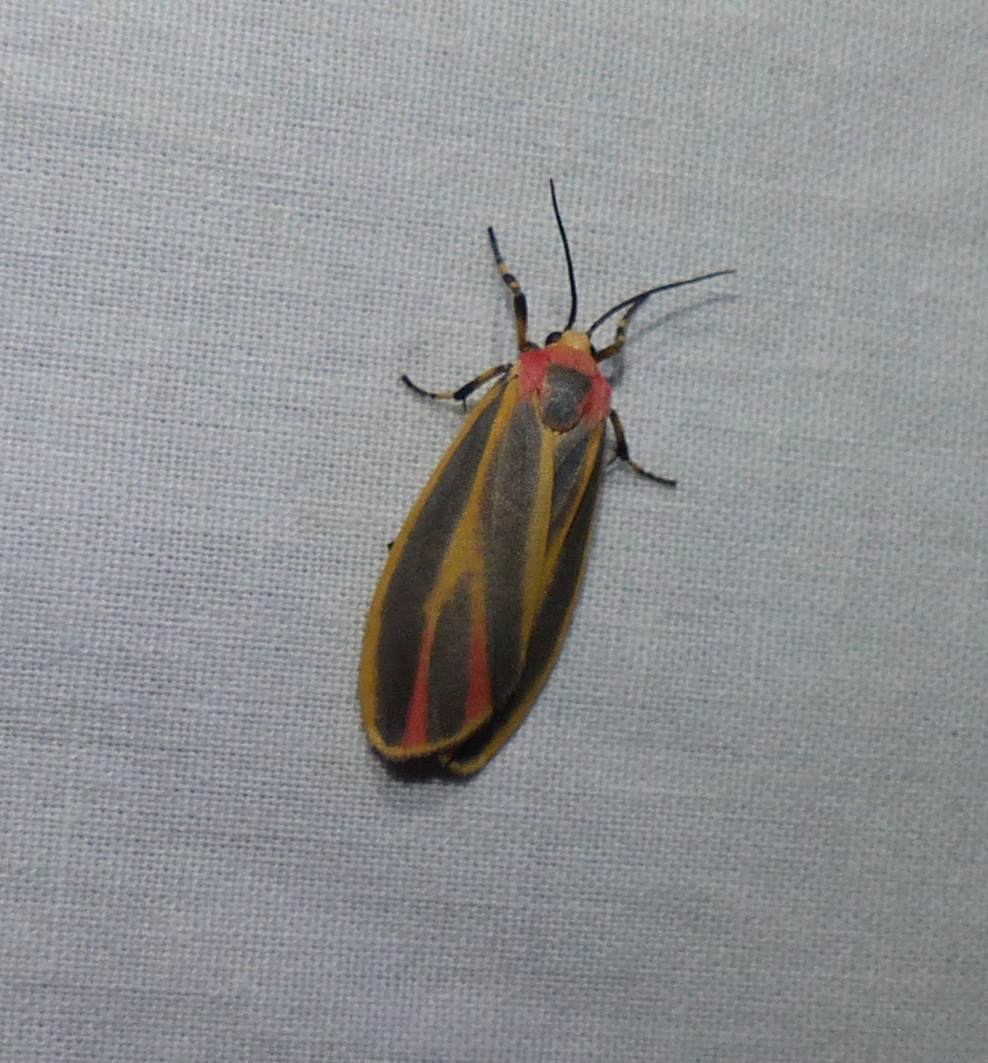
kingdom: Animalia
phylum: Arthropoda
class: Insecta
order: Lepidoptera
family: Erebidae
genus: Hypoprepia
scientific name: Hypoprepia fucosa
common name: Painted lichen moth
